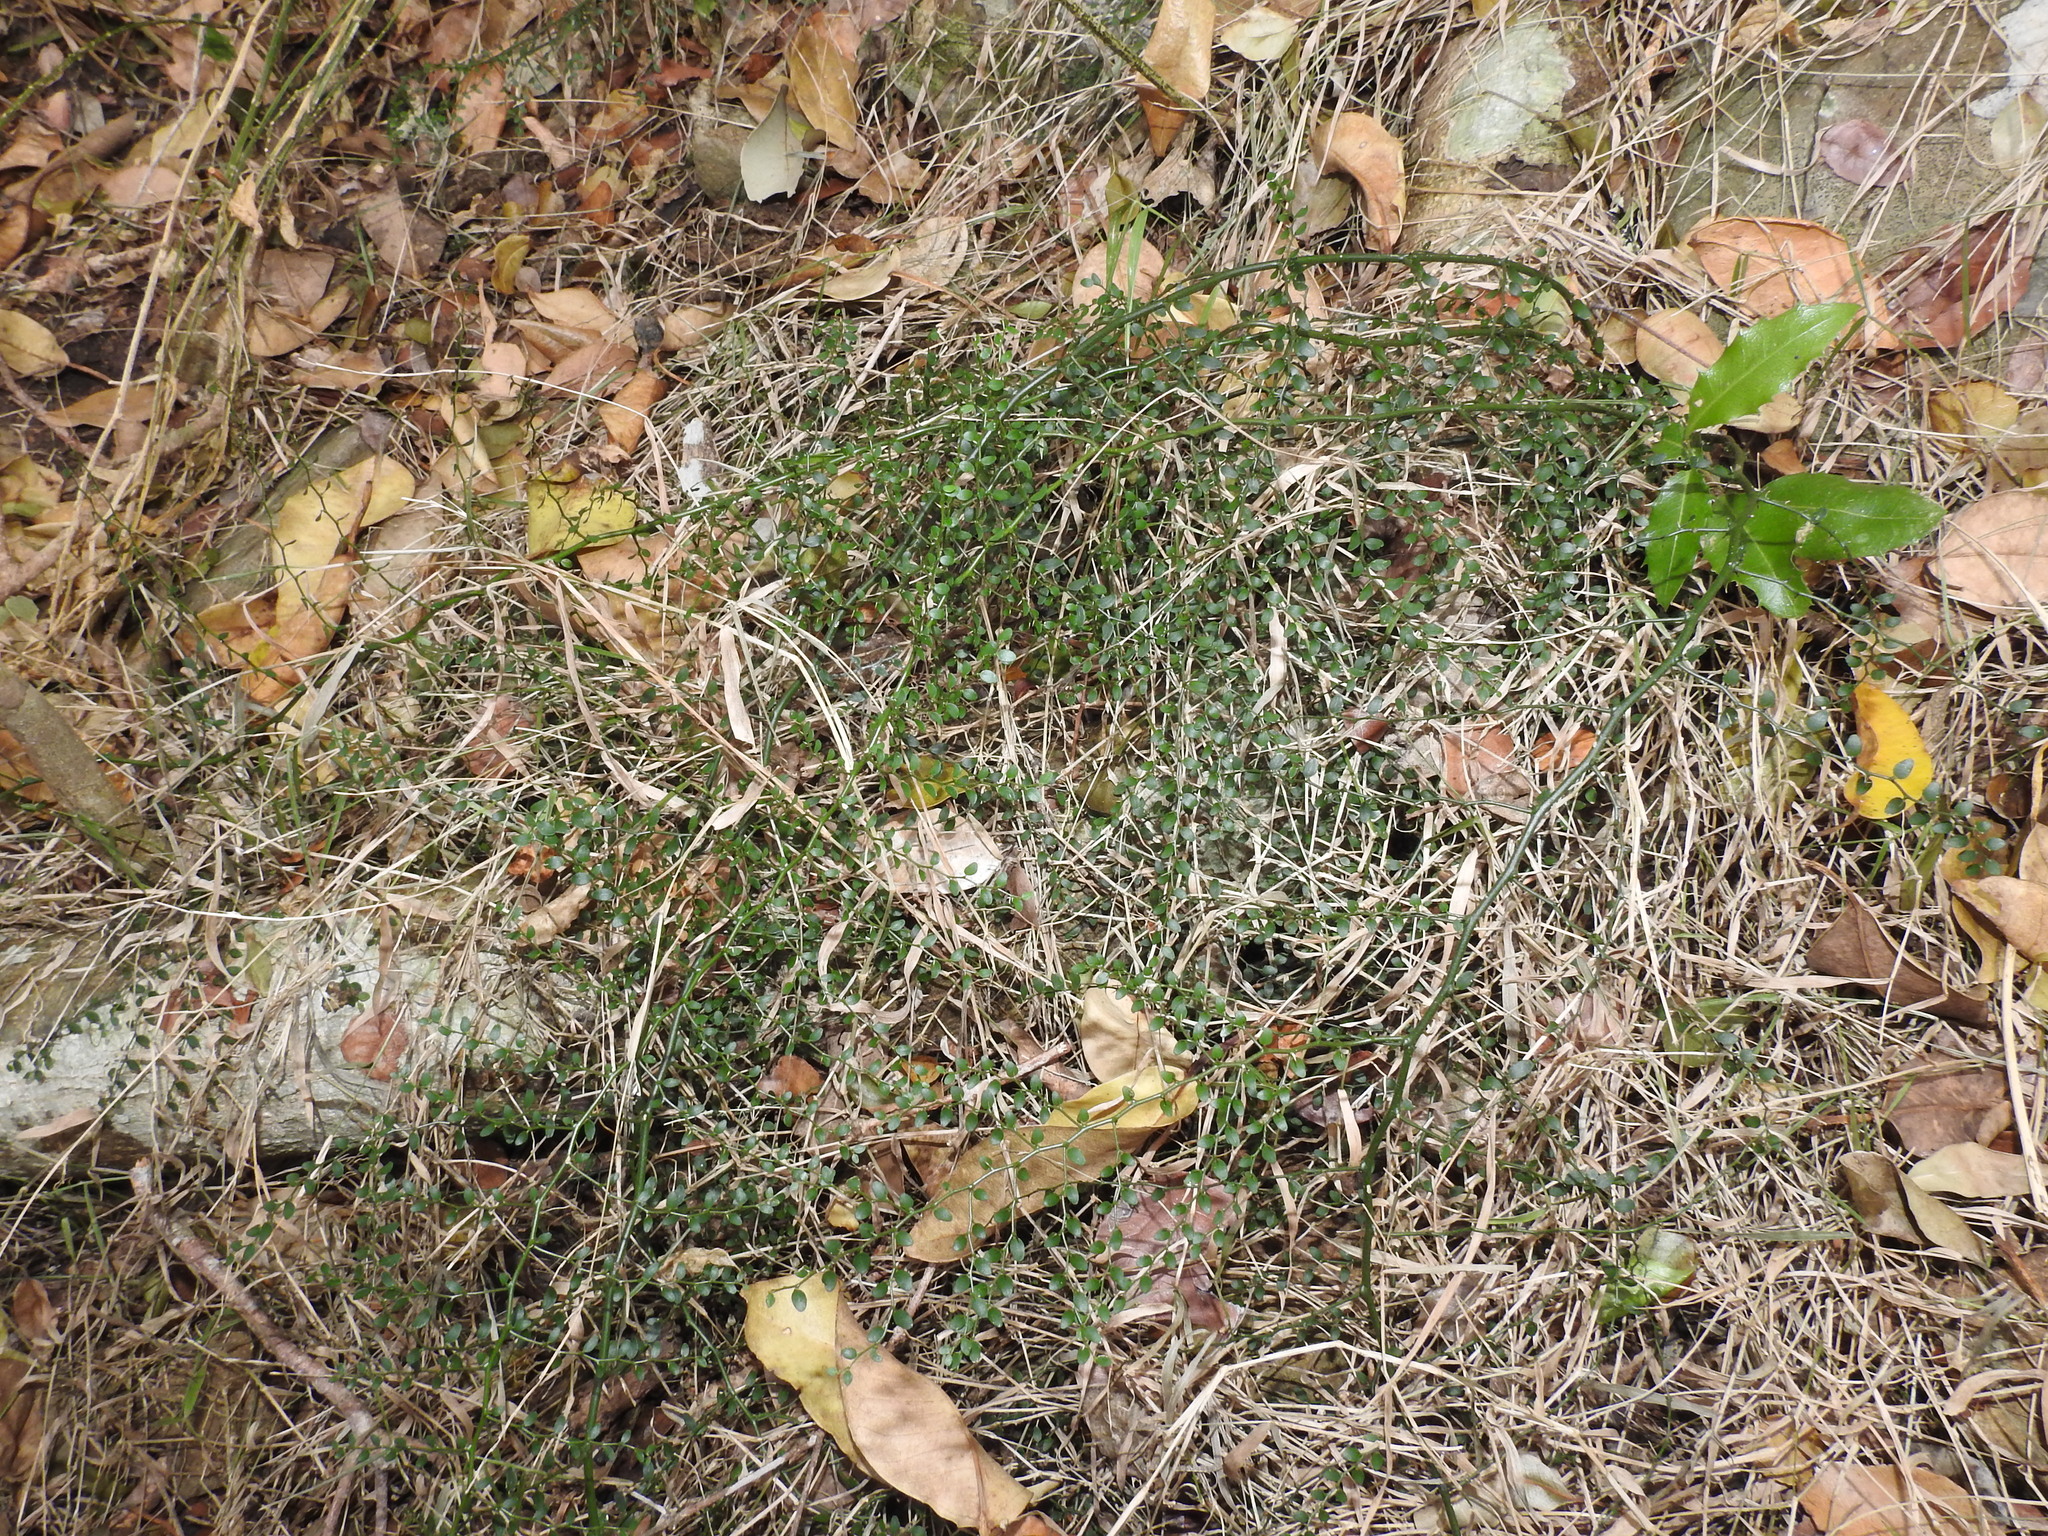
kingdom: Plantae
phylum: Tracheophyta
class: Magnoliopsida
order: Brassicales
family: Capparaceae
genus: Capparis
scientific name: Capparis sarmentosa
